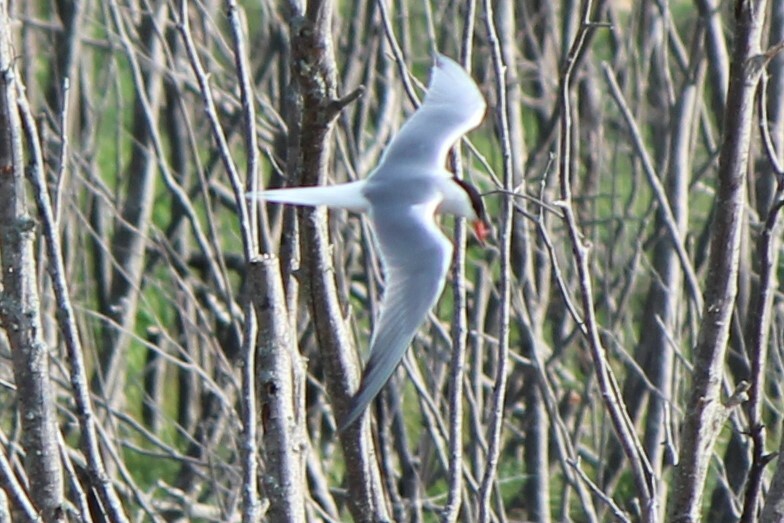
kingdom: Animalia
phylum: Chordata
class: Aves
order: Charadriiformes
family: Laridae
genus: Sterna
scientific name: Sterna hirundo
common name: Common tern
